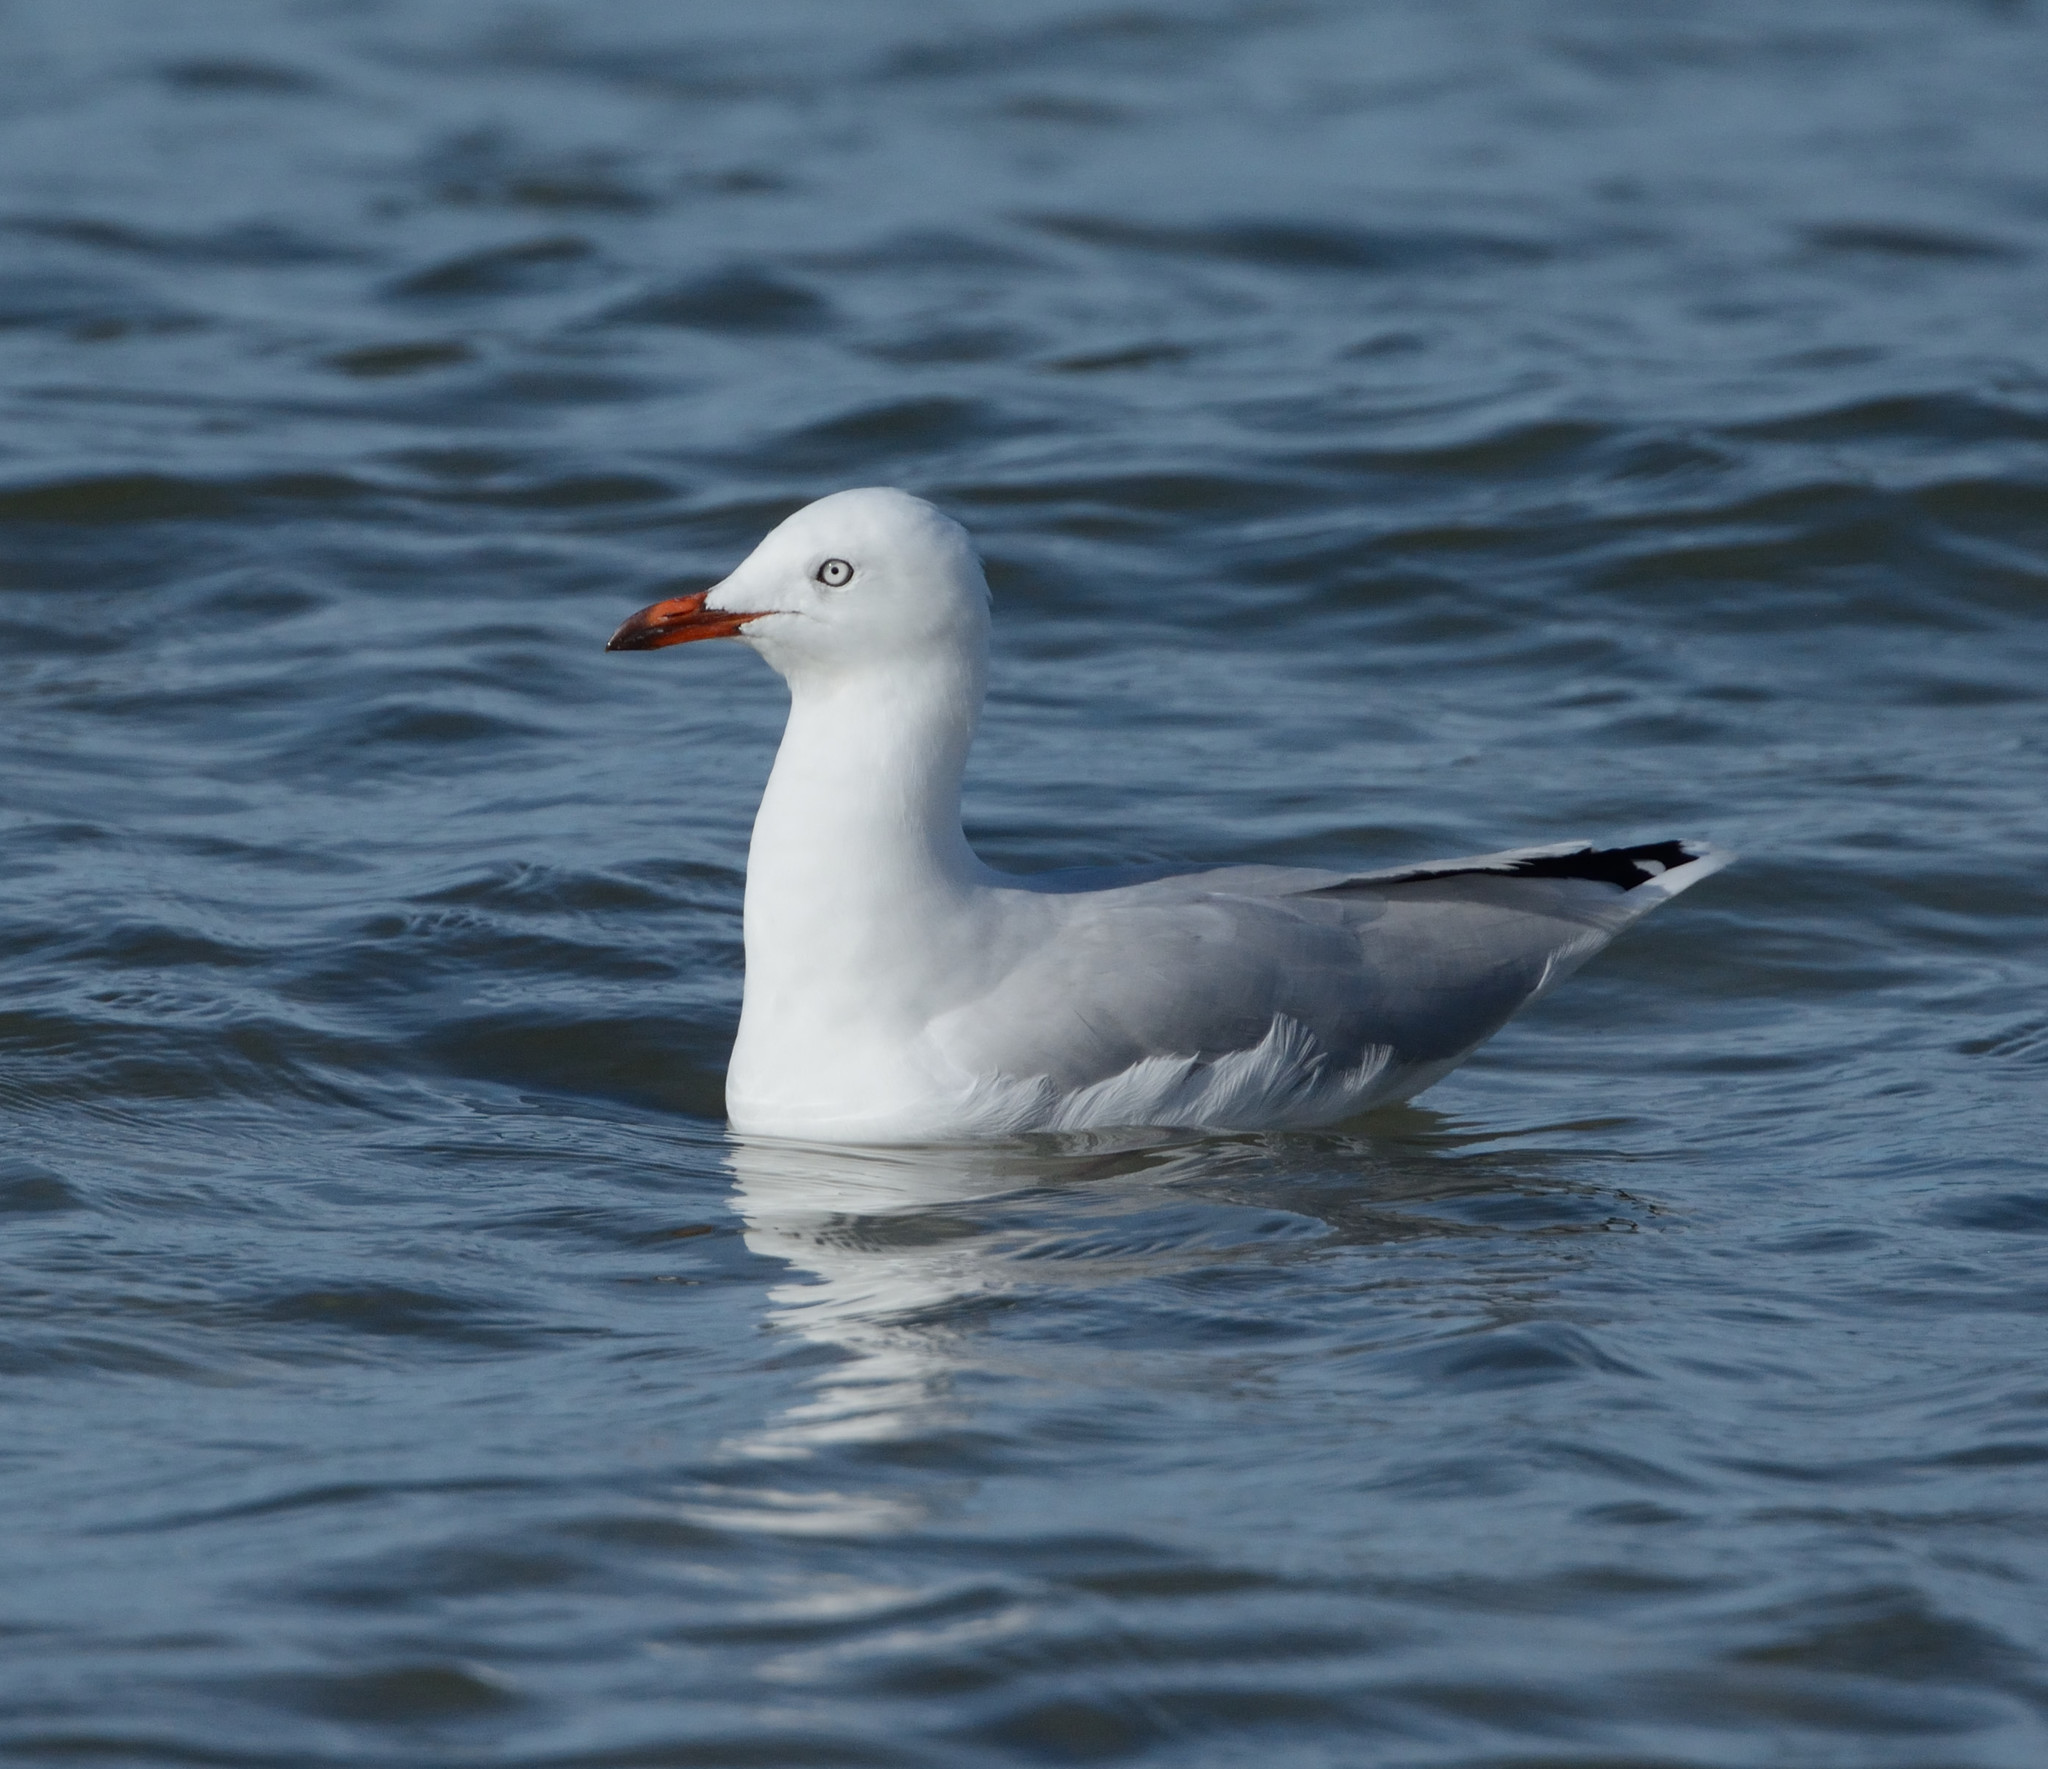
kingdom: Animalia
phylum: Chordata
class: Aves
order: Charadriiformes
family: Laridae
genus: Chroicocephalus
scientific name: Chroicocephalus novaehollandiae
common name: Silver gull
